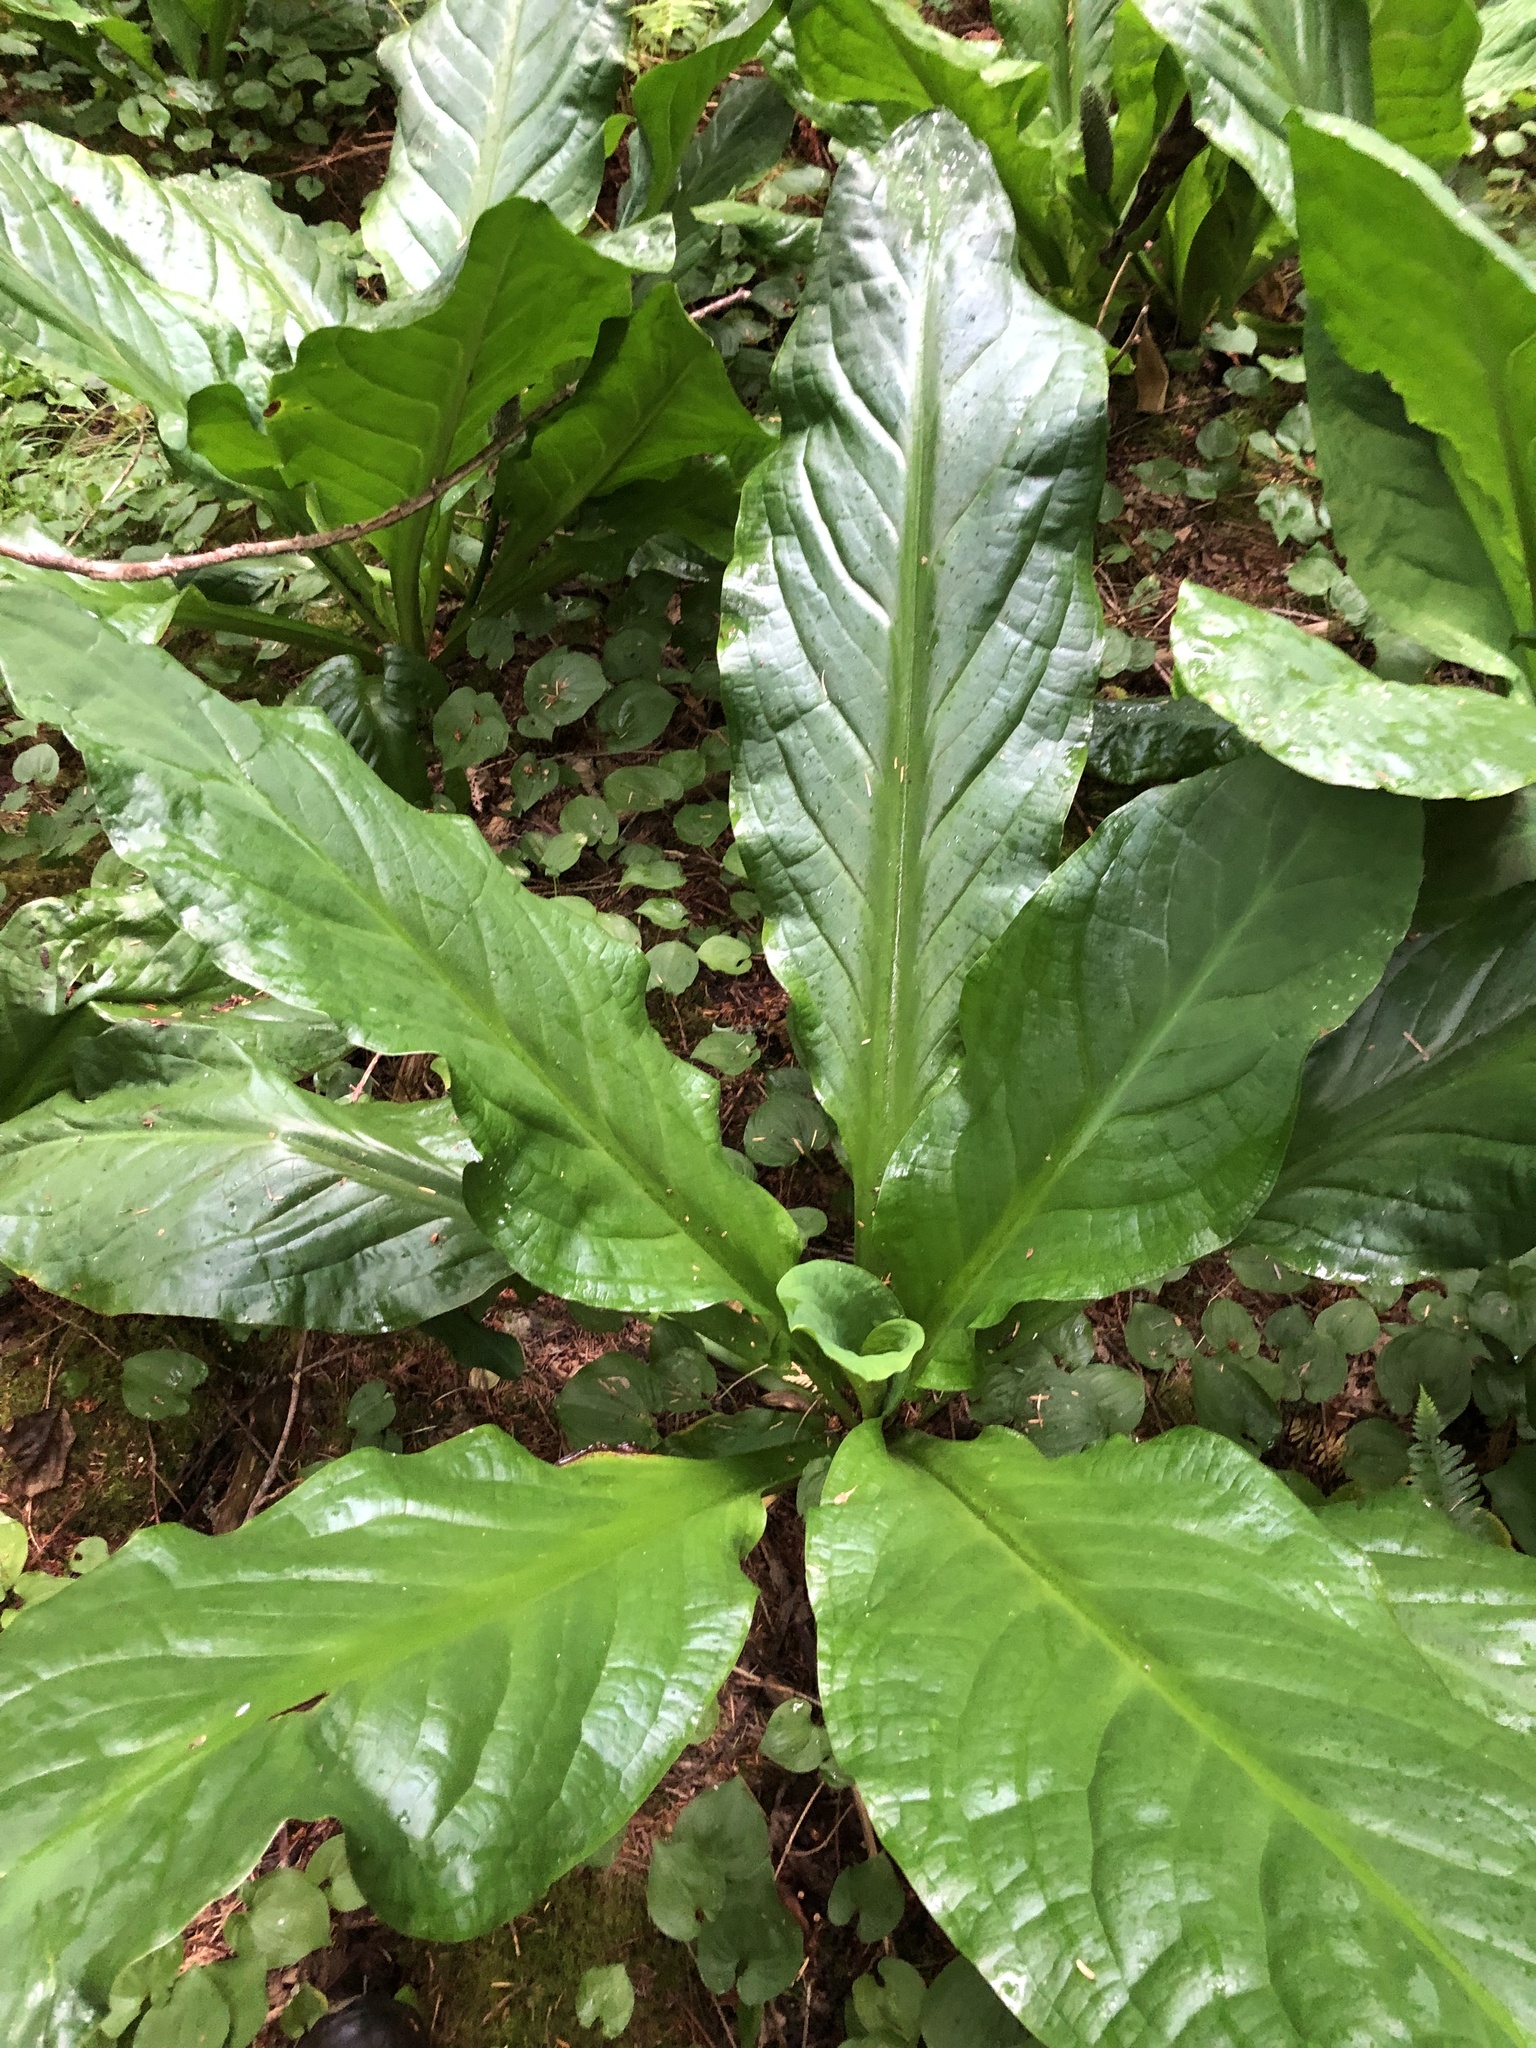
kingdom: Plantae
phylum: Tracheophyta
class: Liliopsida
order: Alismatales
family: Araceae
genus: Lysichiton
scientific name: Lysichiton americanus
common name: American skunk cabbage
